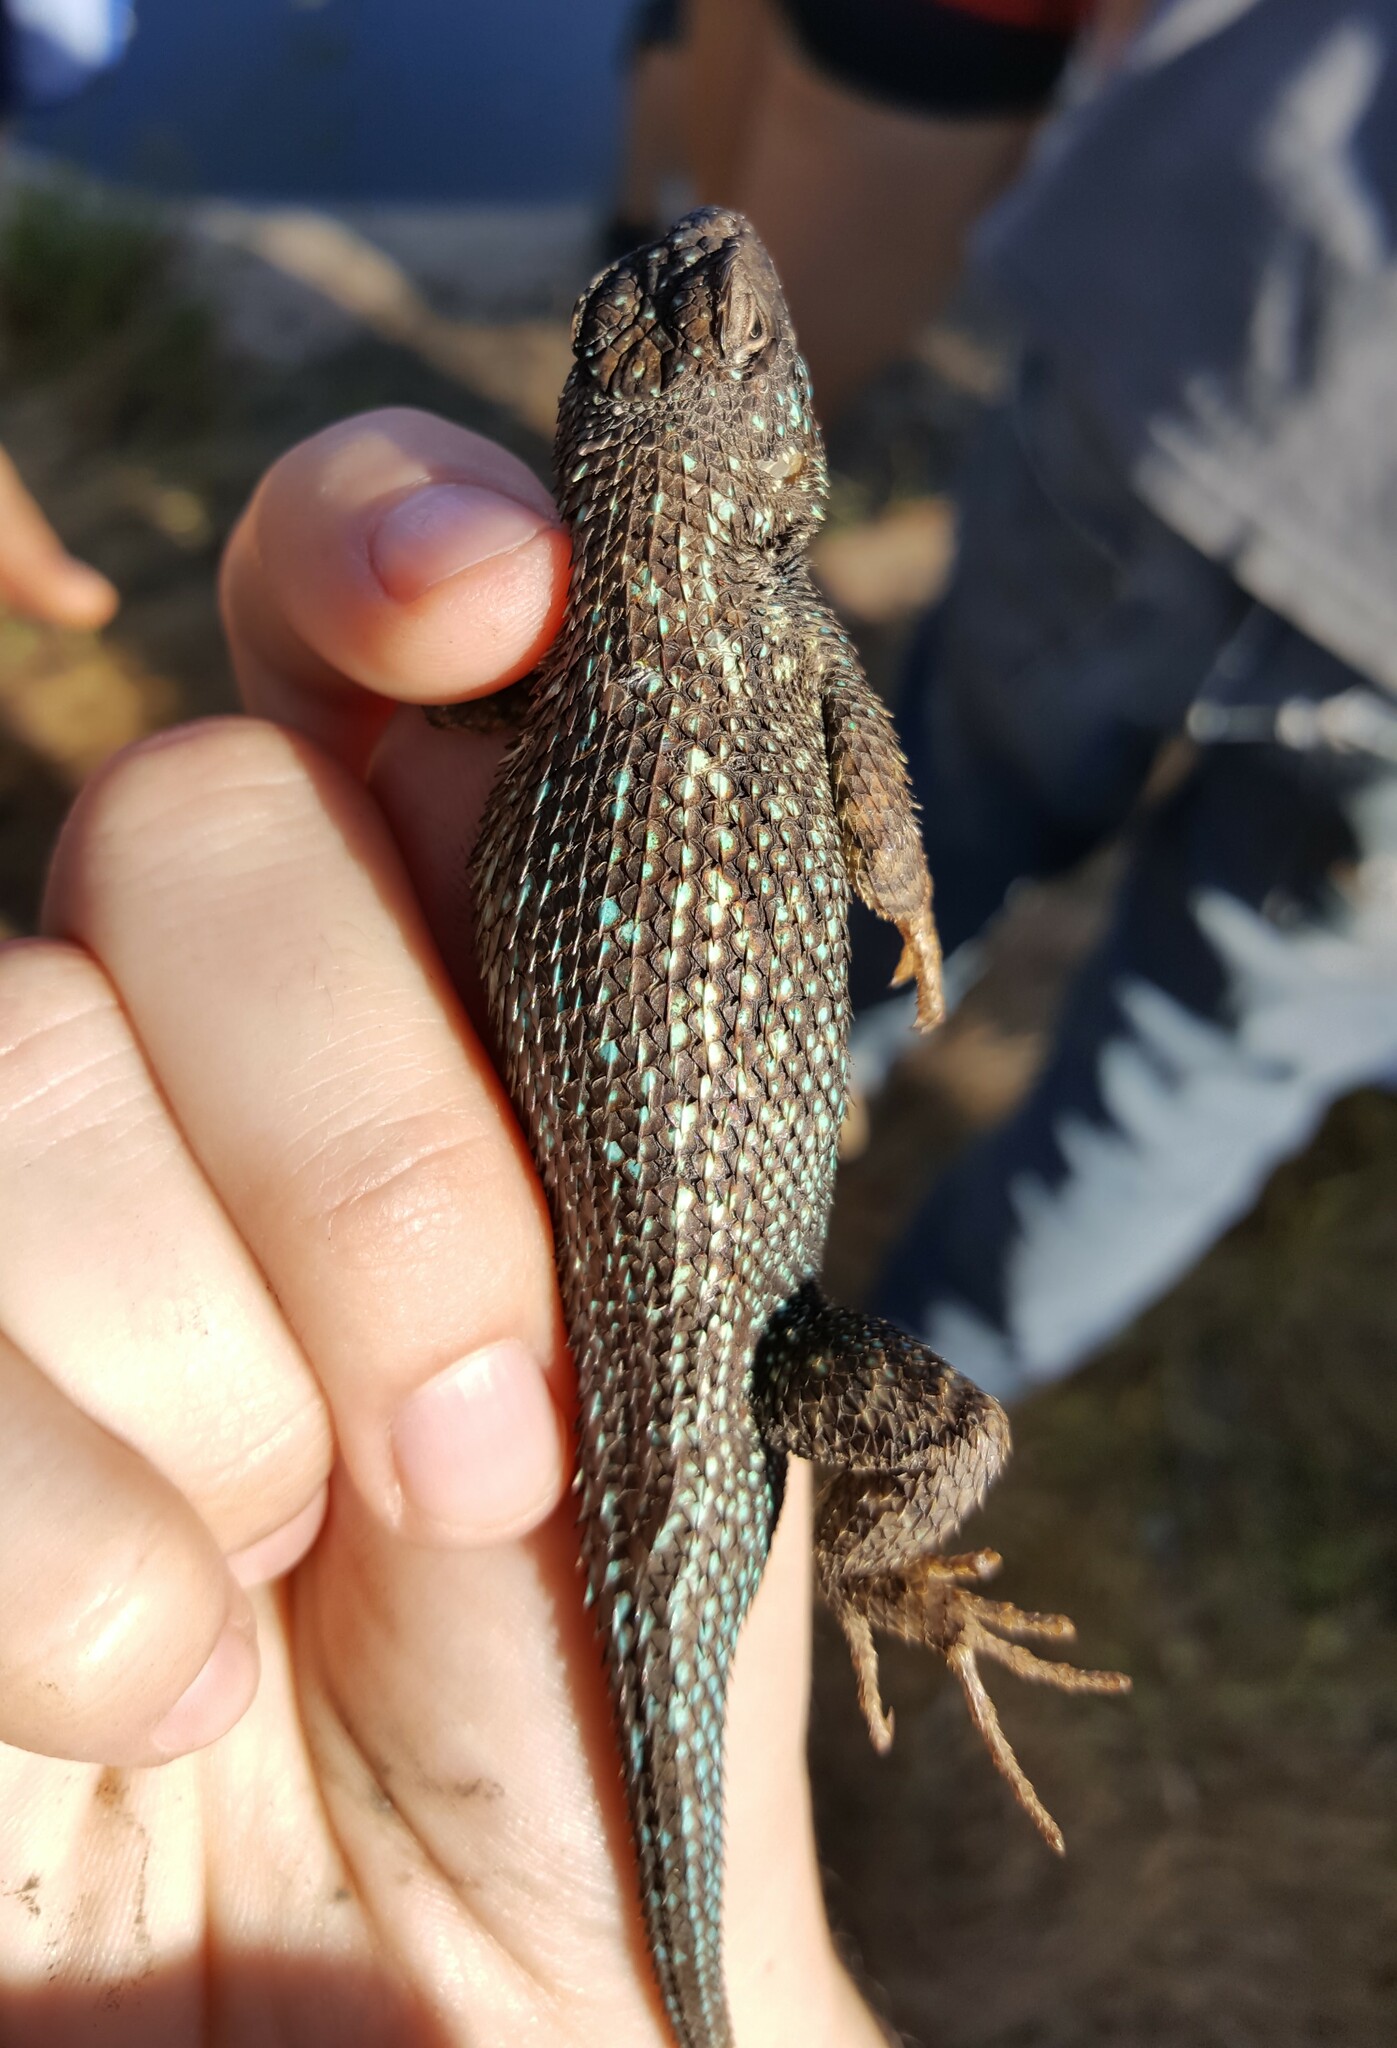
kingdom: Animalia
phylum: Chordata
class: Squamata
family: Phrynosomatidae
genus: Sceloporus
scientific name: Sceloporus occidentalis
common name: Western fence lizard
